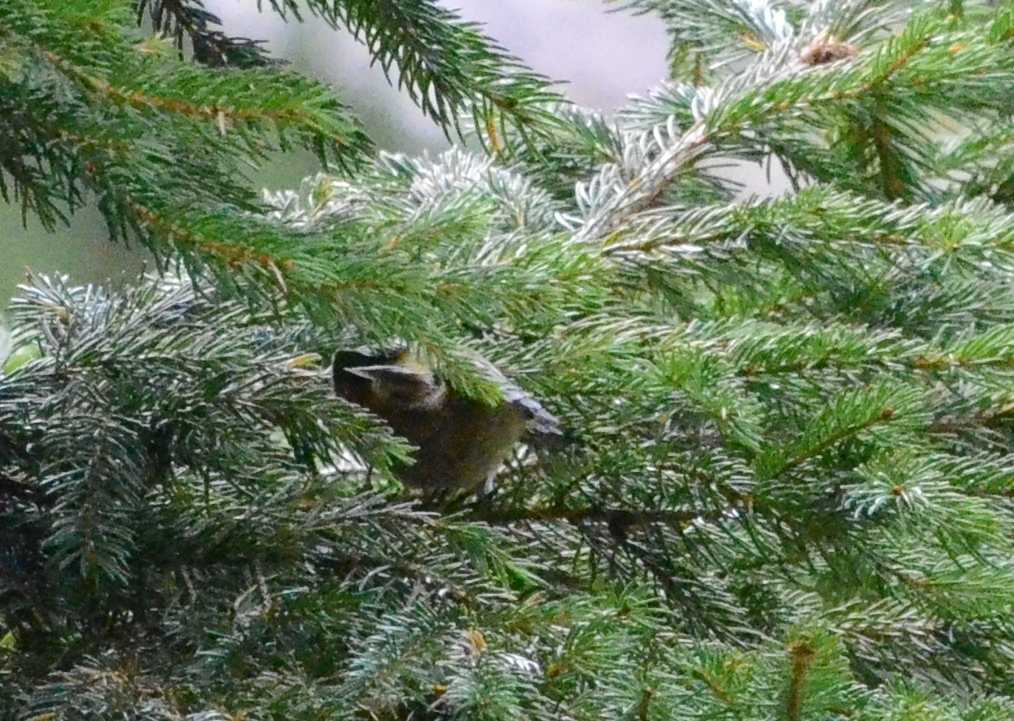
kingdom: Animalia
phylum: Chordata
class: Aves
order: Passeriformes
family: Regulidae
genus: Regulus
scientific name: Regulus regulus
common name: Goldcrest
